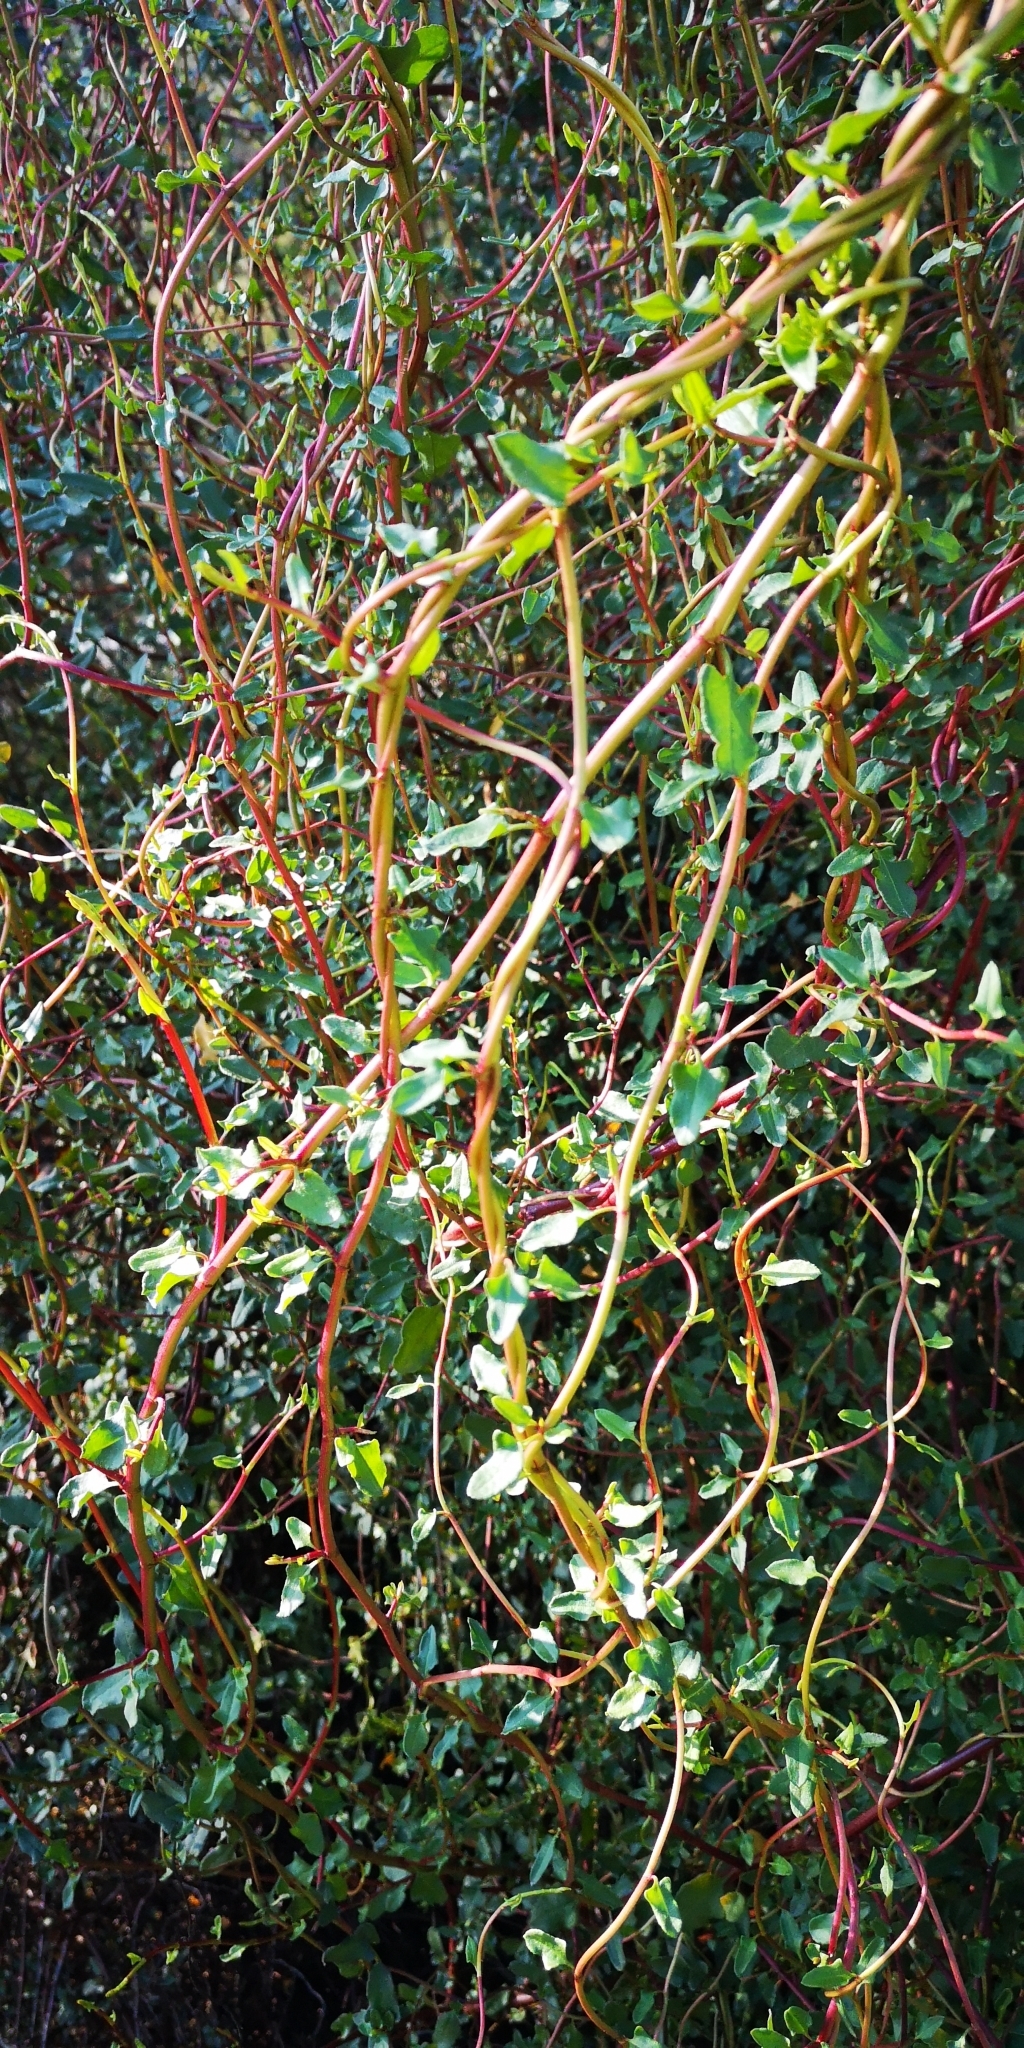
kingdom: Plantae
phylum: Tracheophyta
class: Magnoliopsida
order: Caryophyllales
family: Polygonaceae
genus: Muehlenbeckia
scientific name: Muehlenbeckia hastulata
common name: Wirevine
